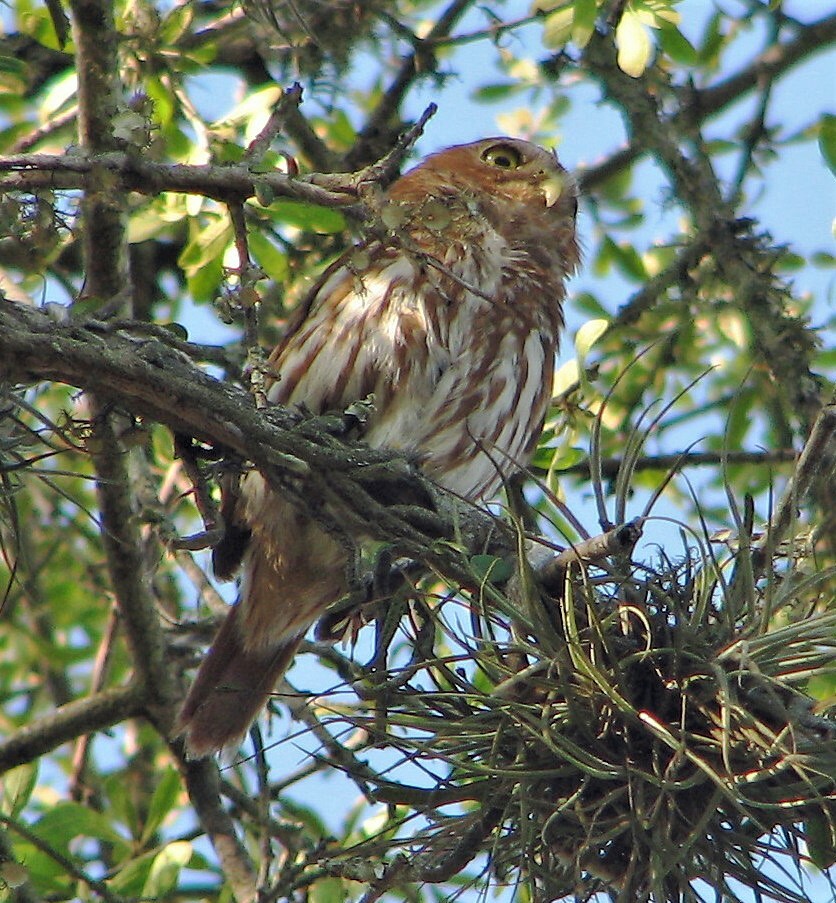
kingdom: Animalia
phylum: Chordata
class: Aves
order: Strigiformes
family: Strigidae
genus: Glaucidium
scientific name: Glaucidium brasilianum
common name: Ferruginous pygmy-owl
